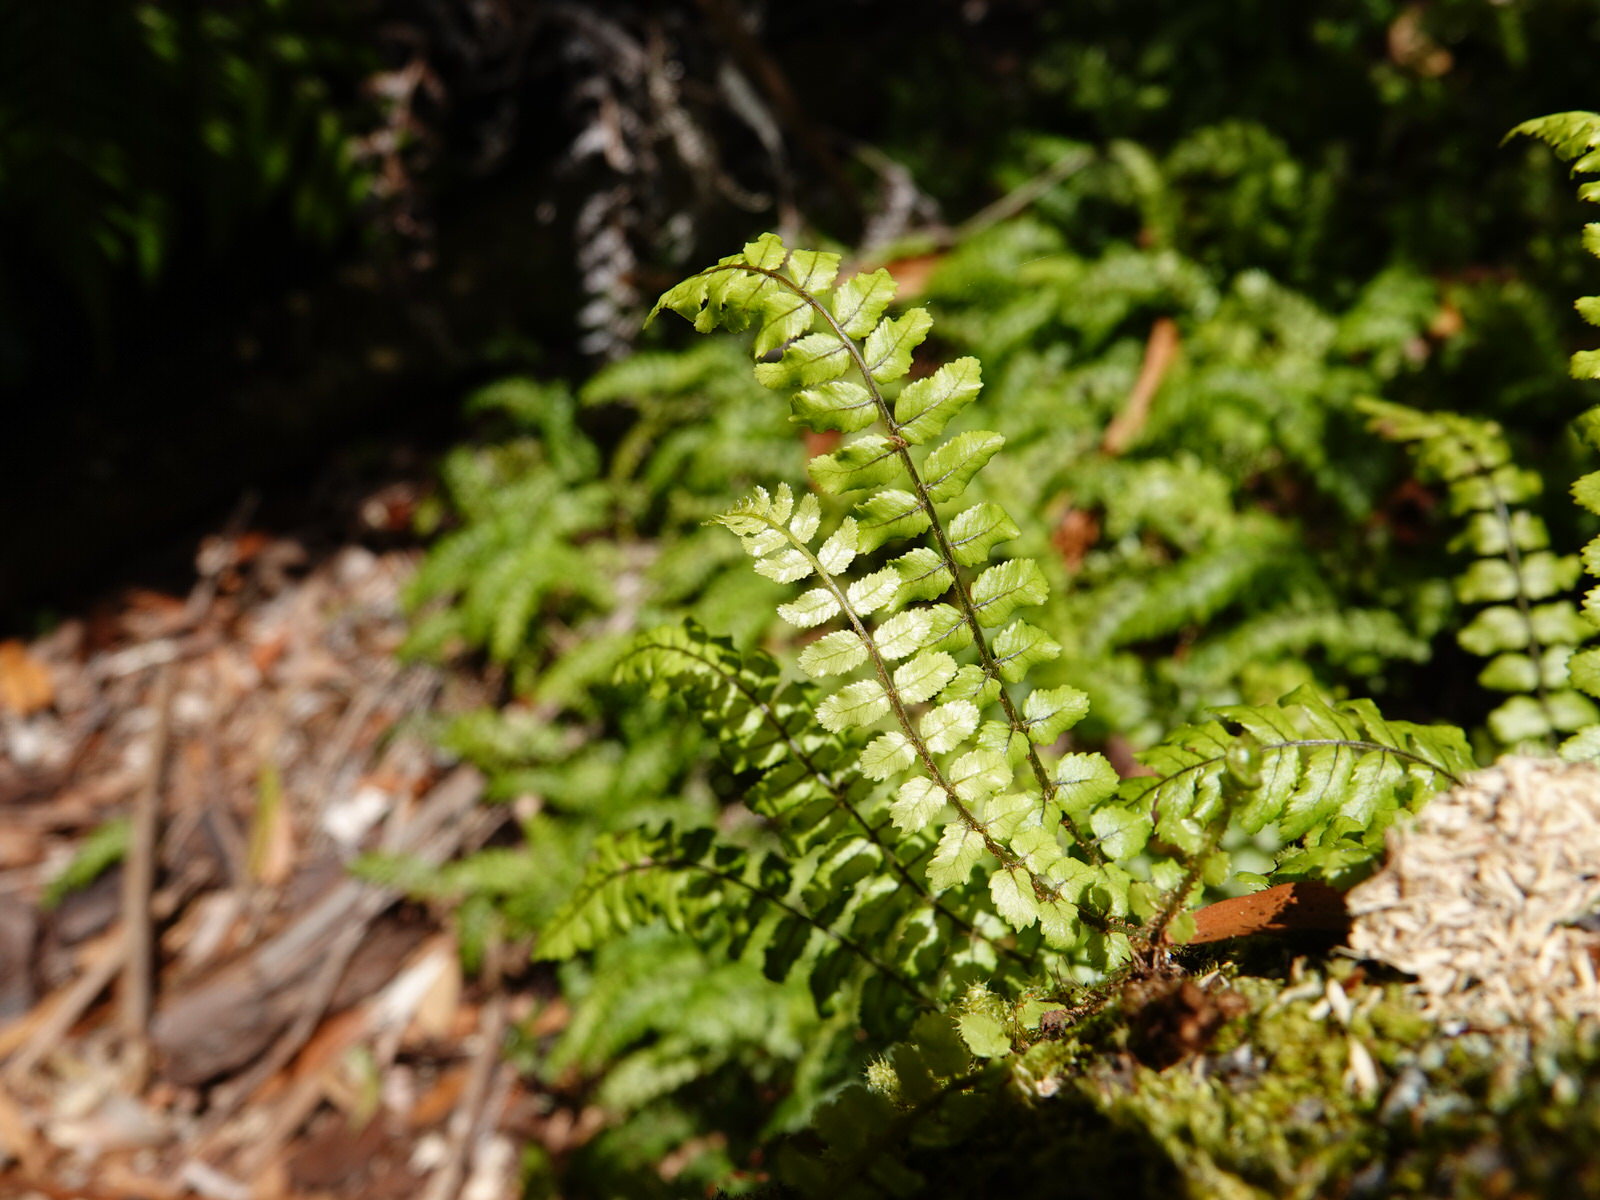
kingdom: Plantae
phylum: Tracheophyta
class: Polypodiopsida
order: Polypodiales
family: Blechnaceae
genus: Icarus
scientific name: Icarus filiformis
